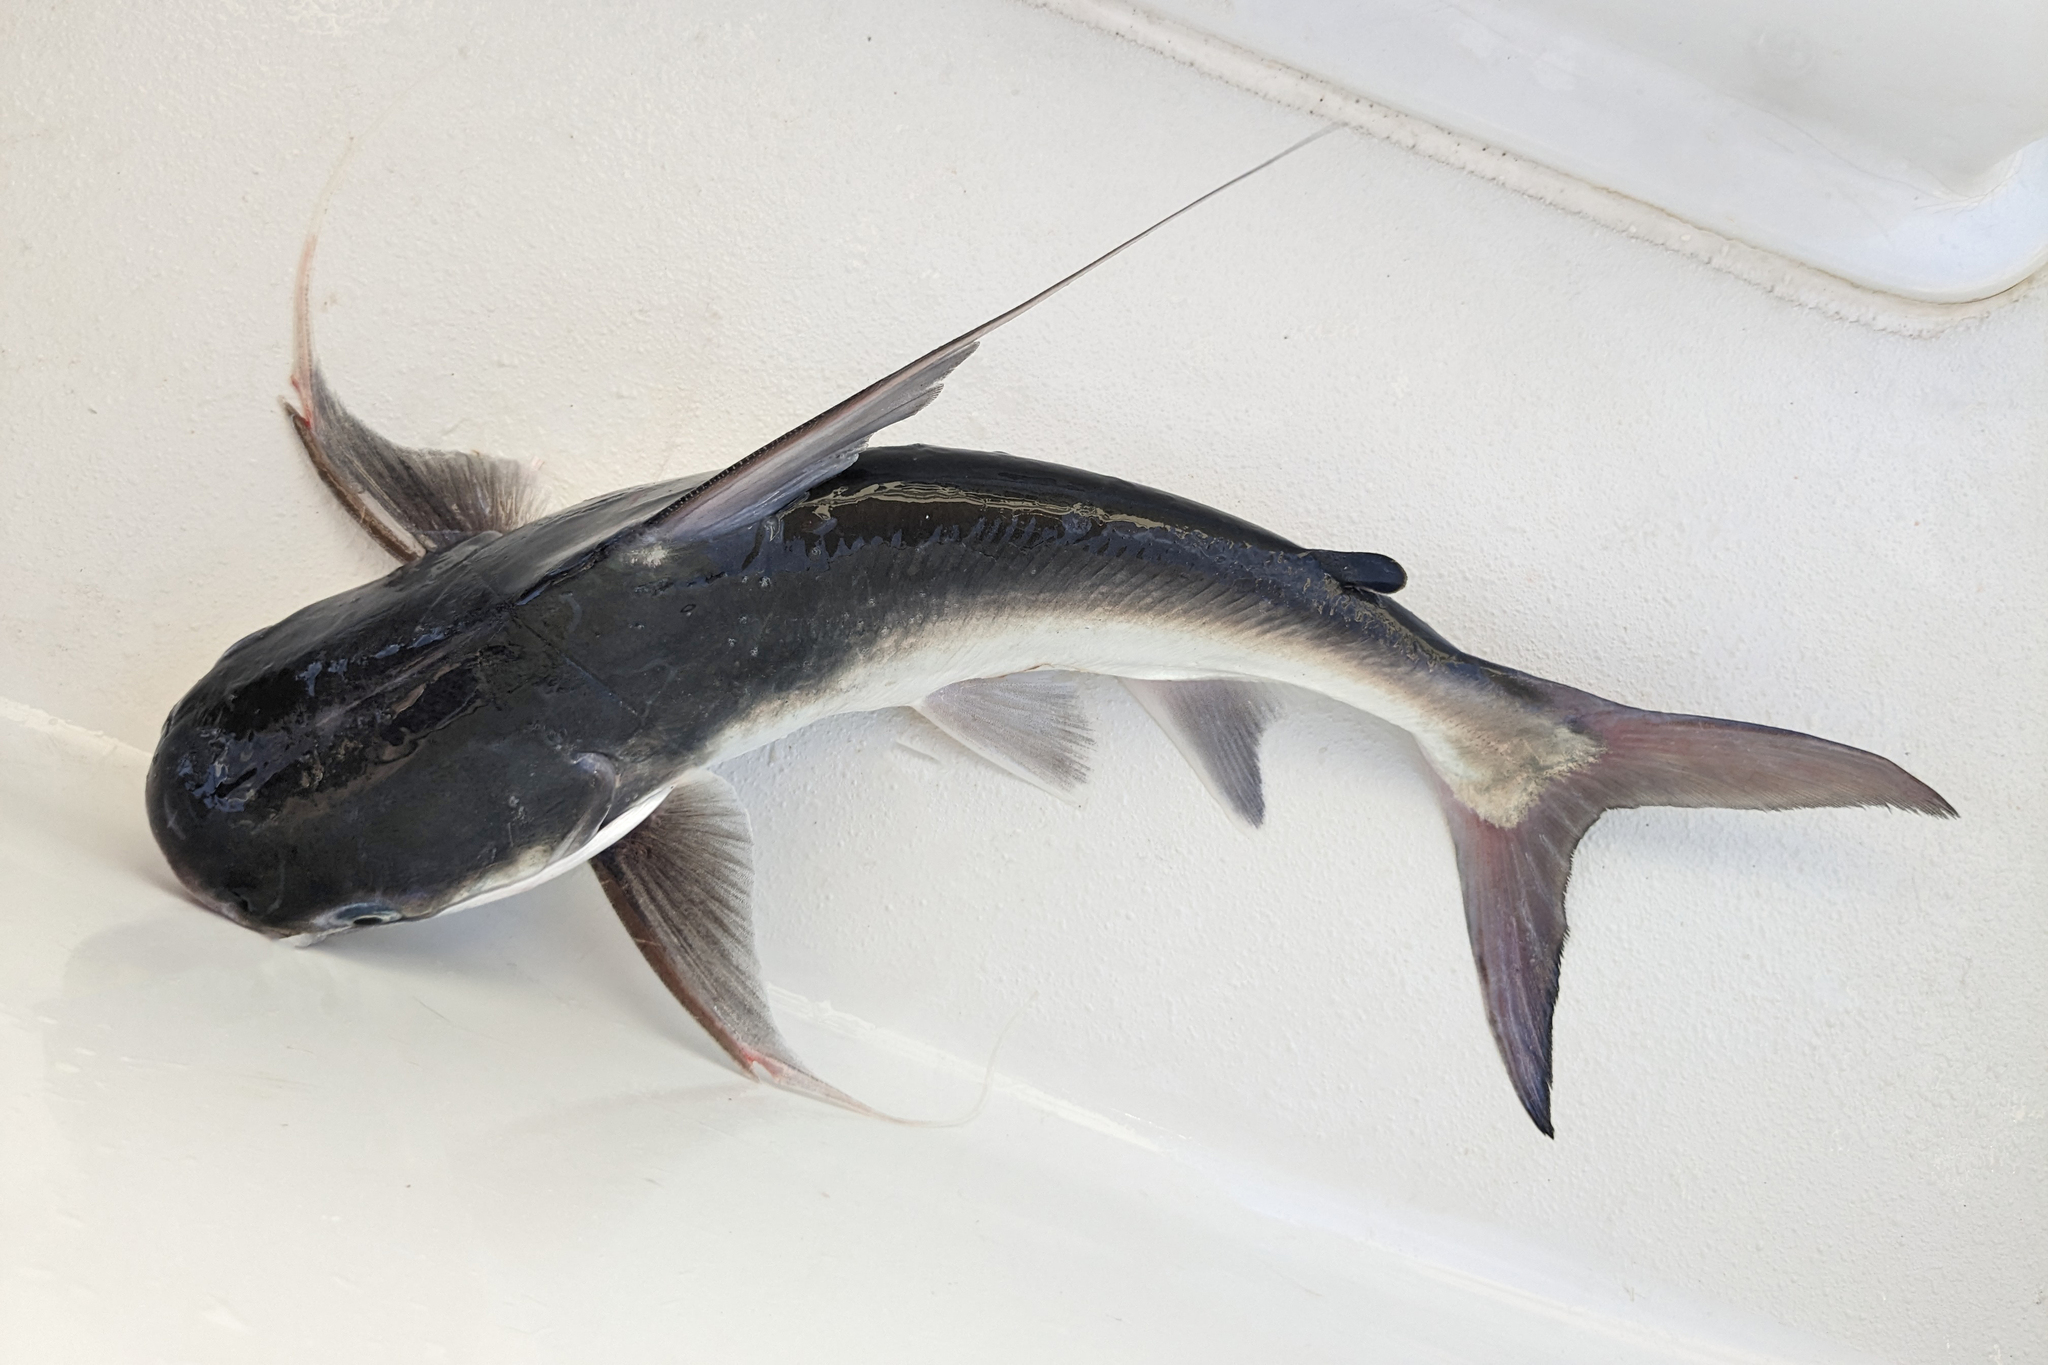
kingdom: Animalia
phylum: Chordata
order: Siluriformes
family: Ariidae
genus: Bagre
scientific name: Bagre marinus
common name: Gafftopsail sea catfish
